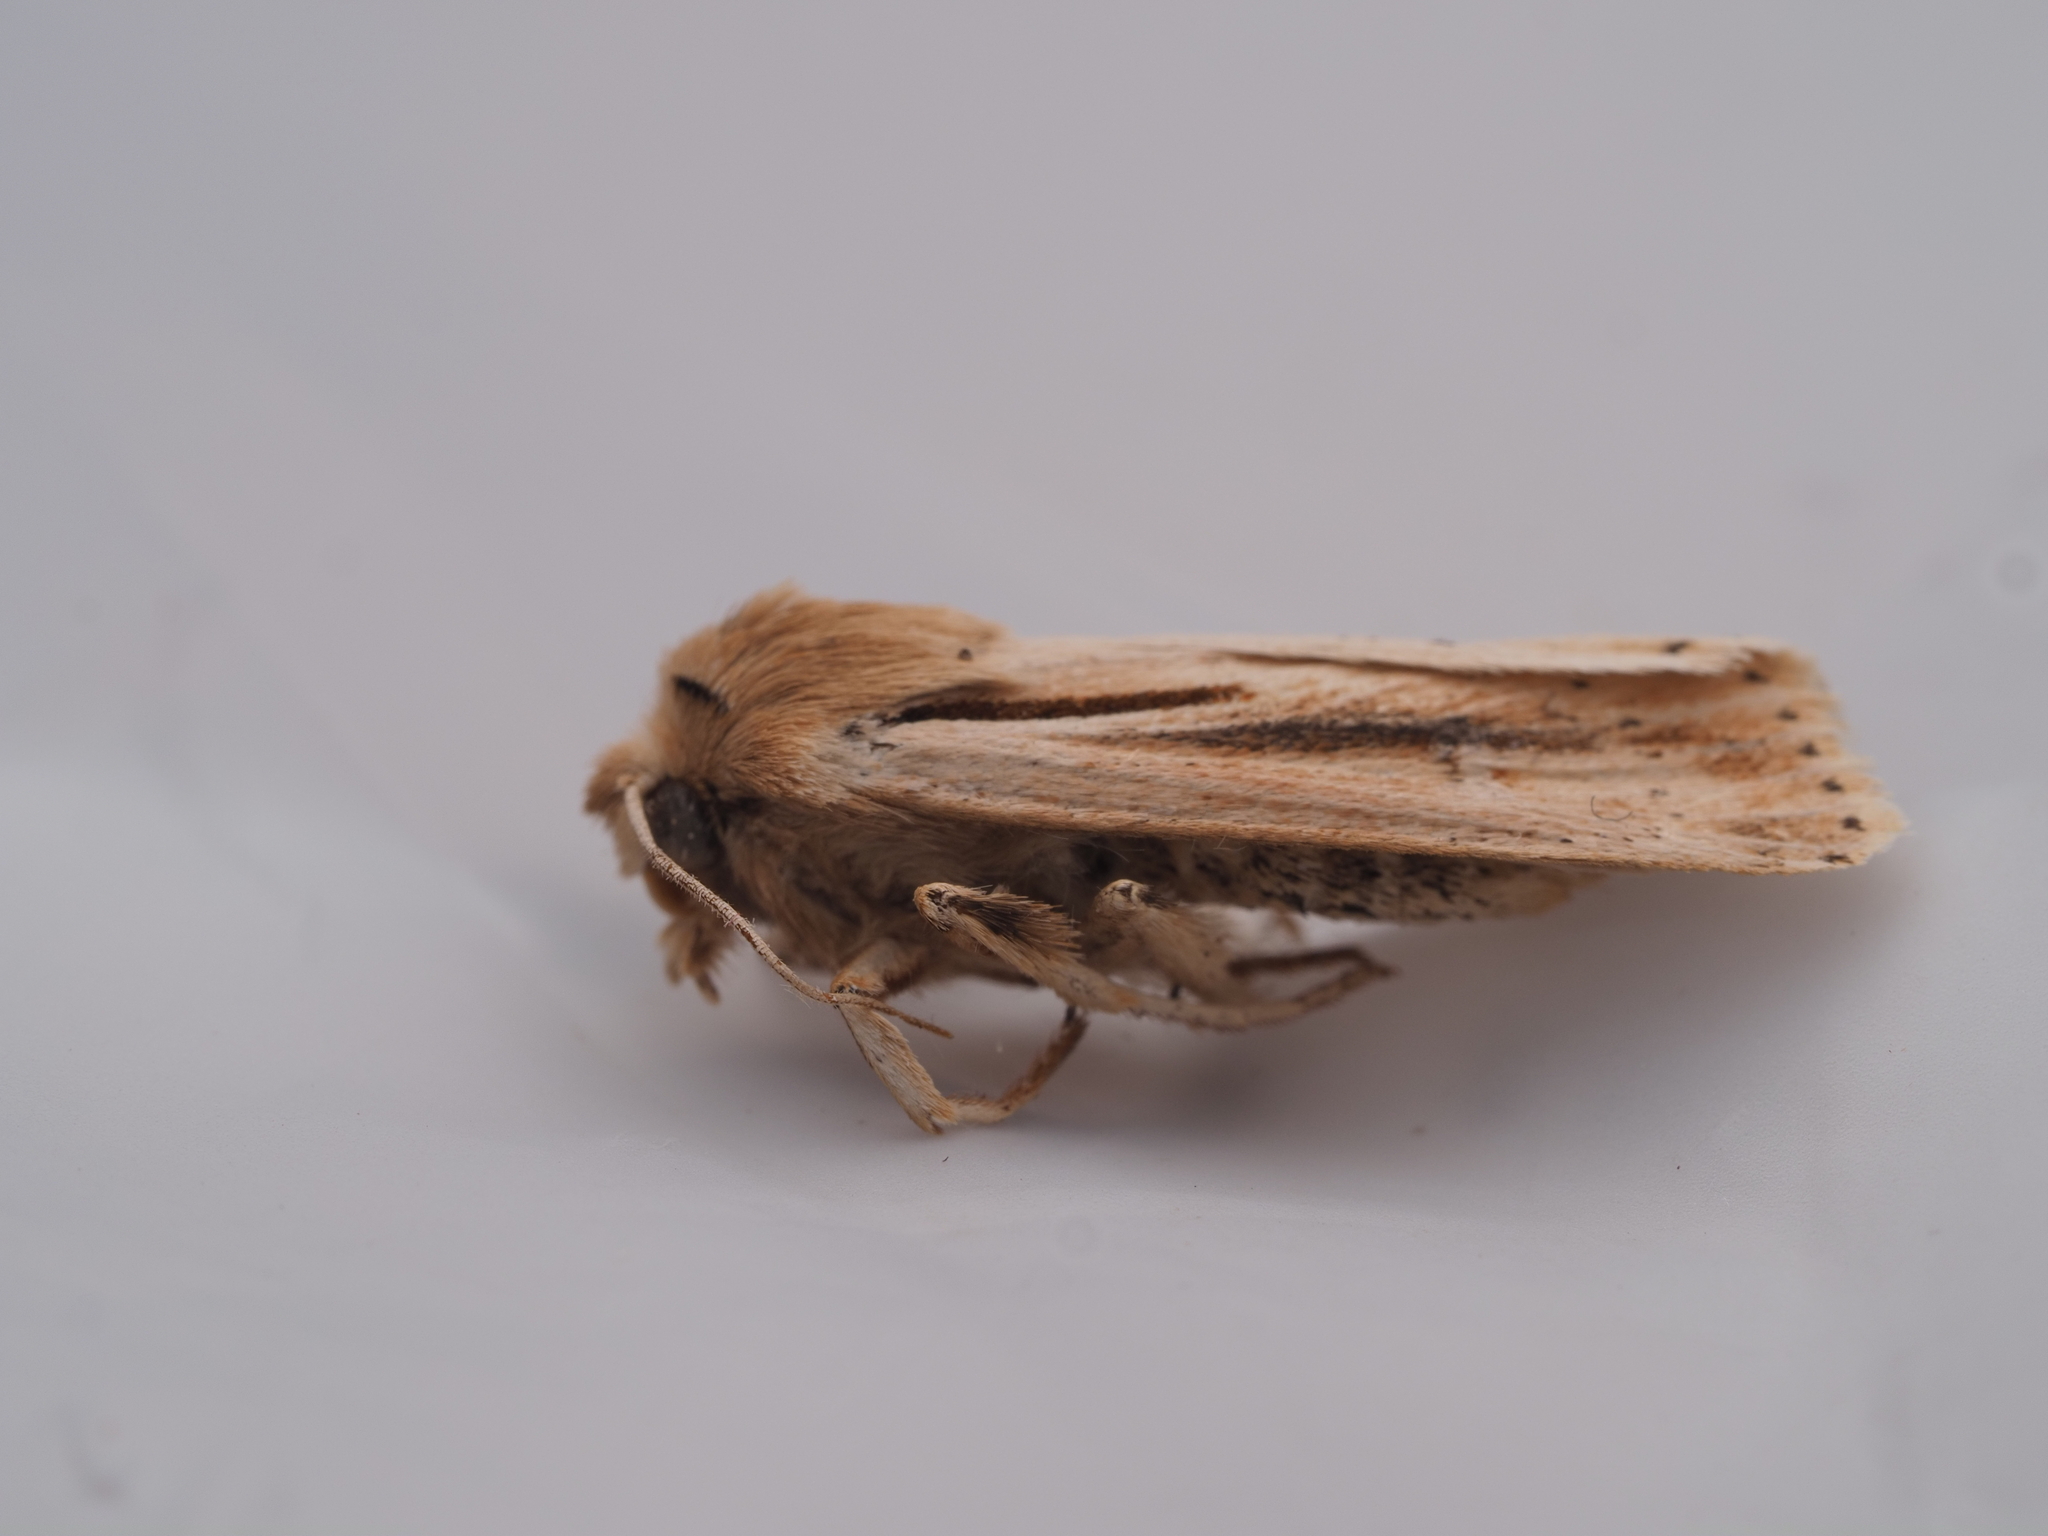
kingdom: Animalia
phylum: Arthropoda
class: Insecta
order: Lepidoptera
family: Noctuidae
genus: Ichneutica
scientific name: Ichneutica propria
